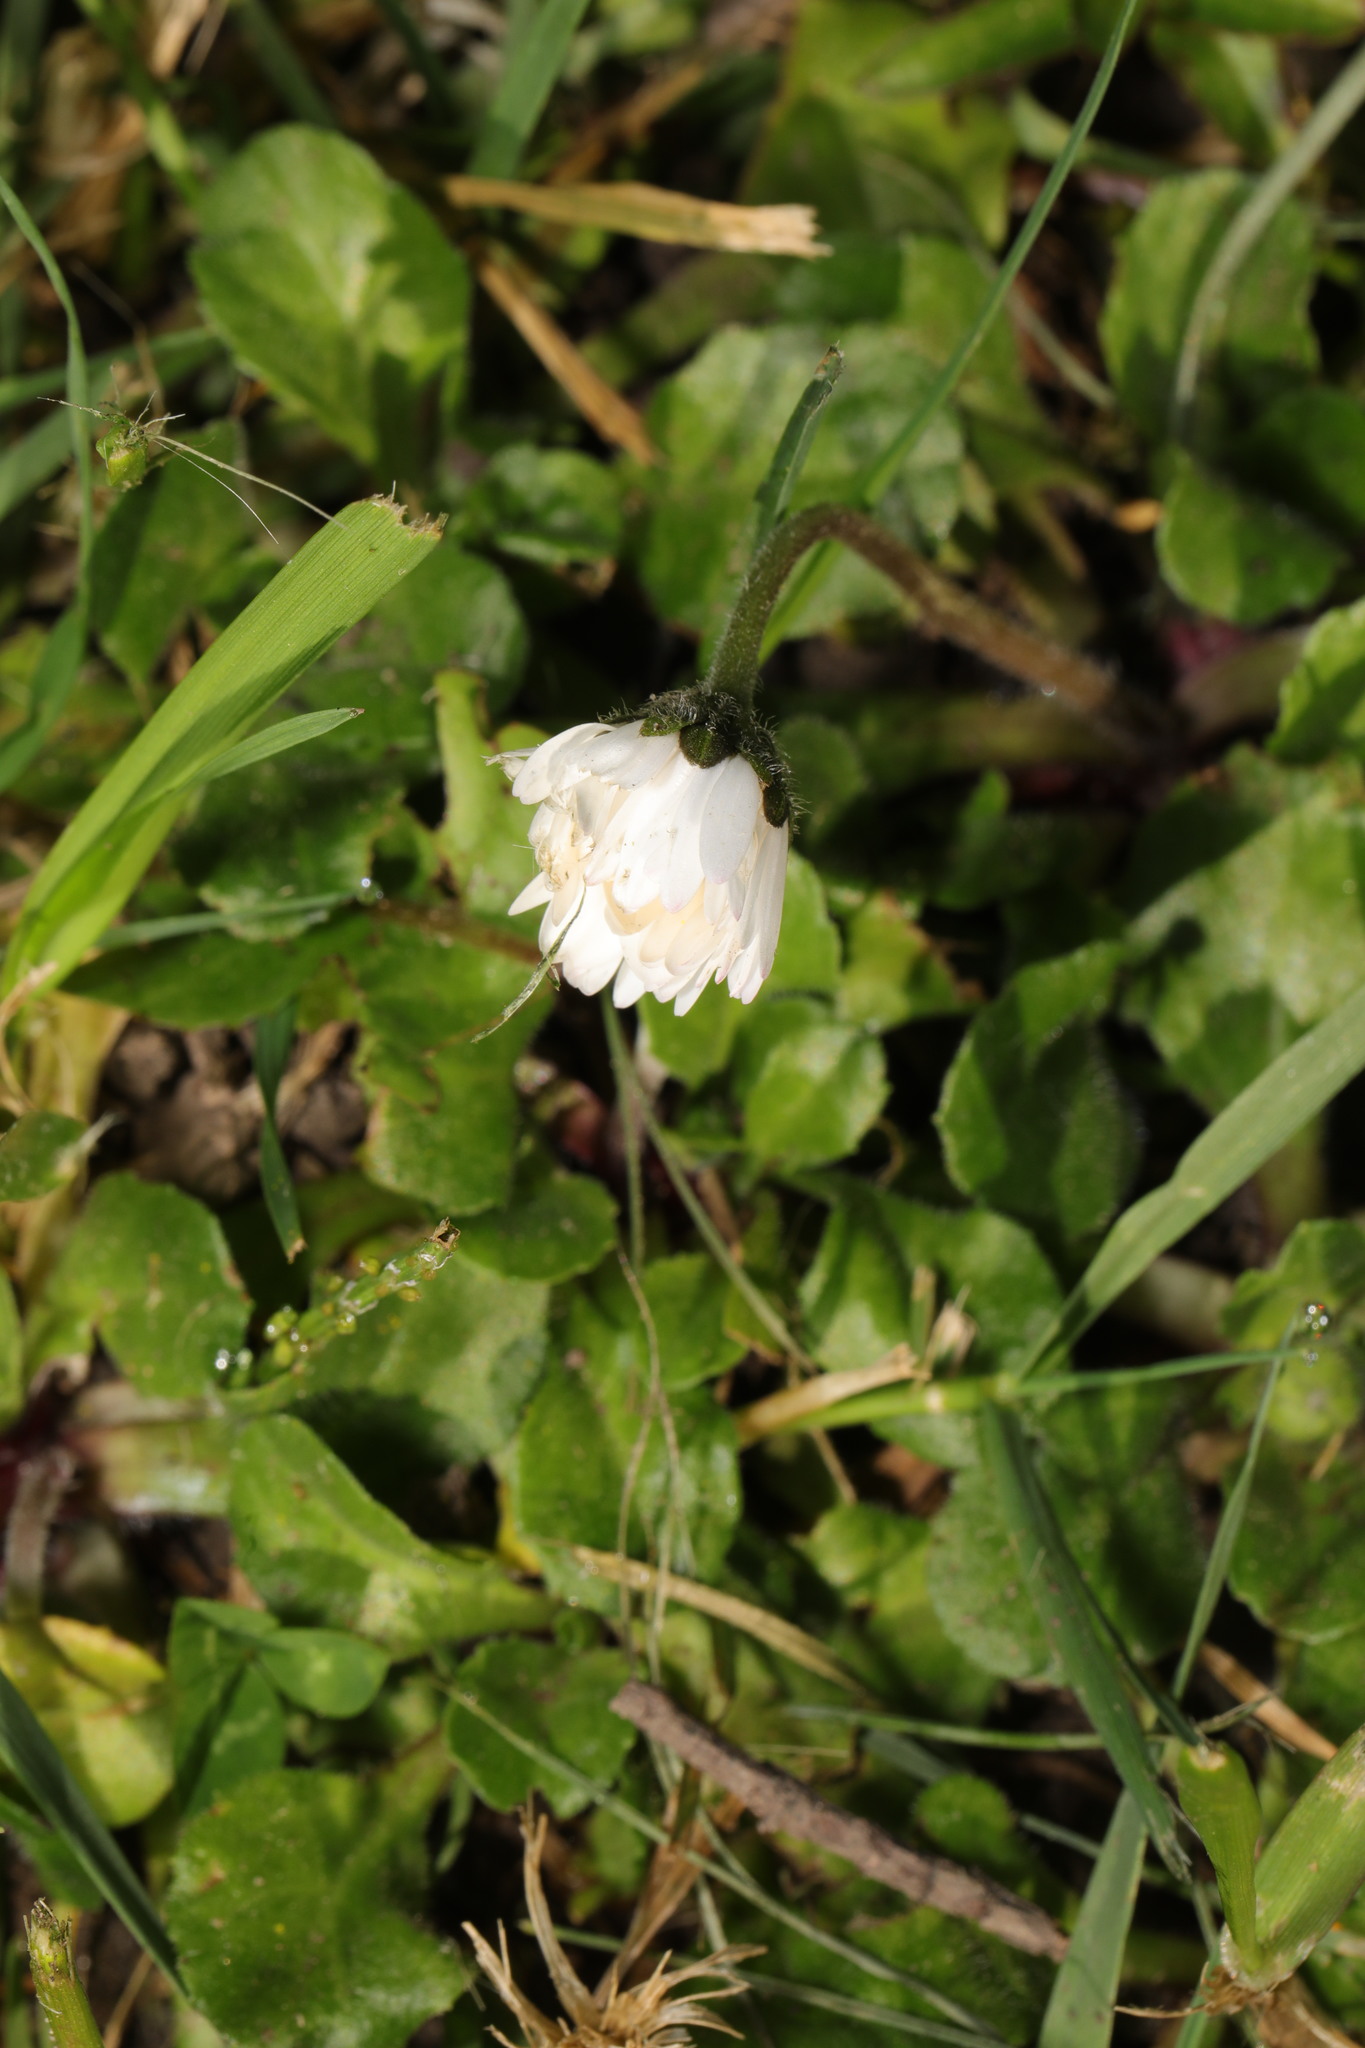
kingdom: Plantae
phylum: Tracheophyta
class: Magnoliopsida
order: Asterales
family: Asteraceae
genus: Bellis
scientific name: Bellis perennis
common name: Lawndaisy
